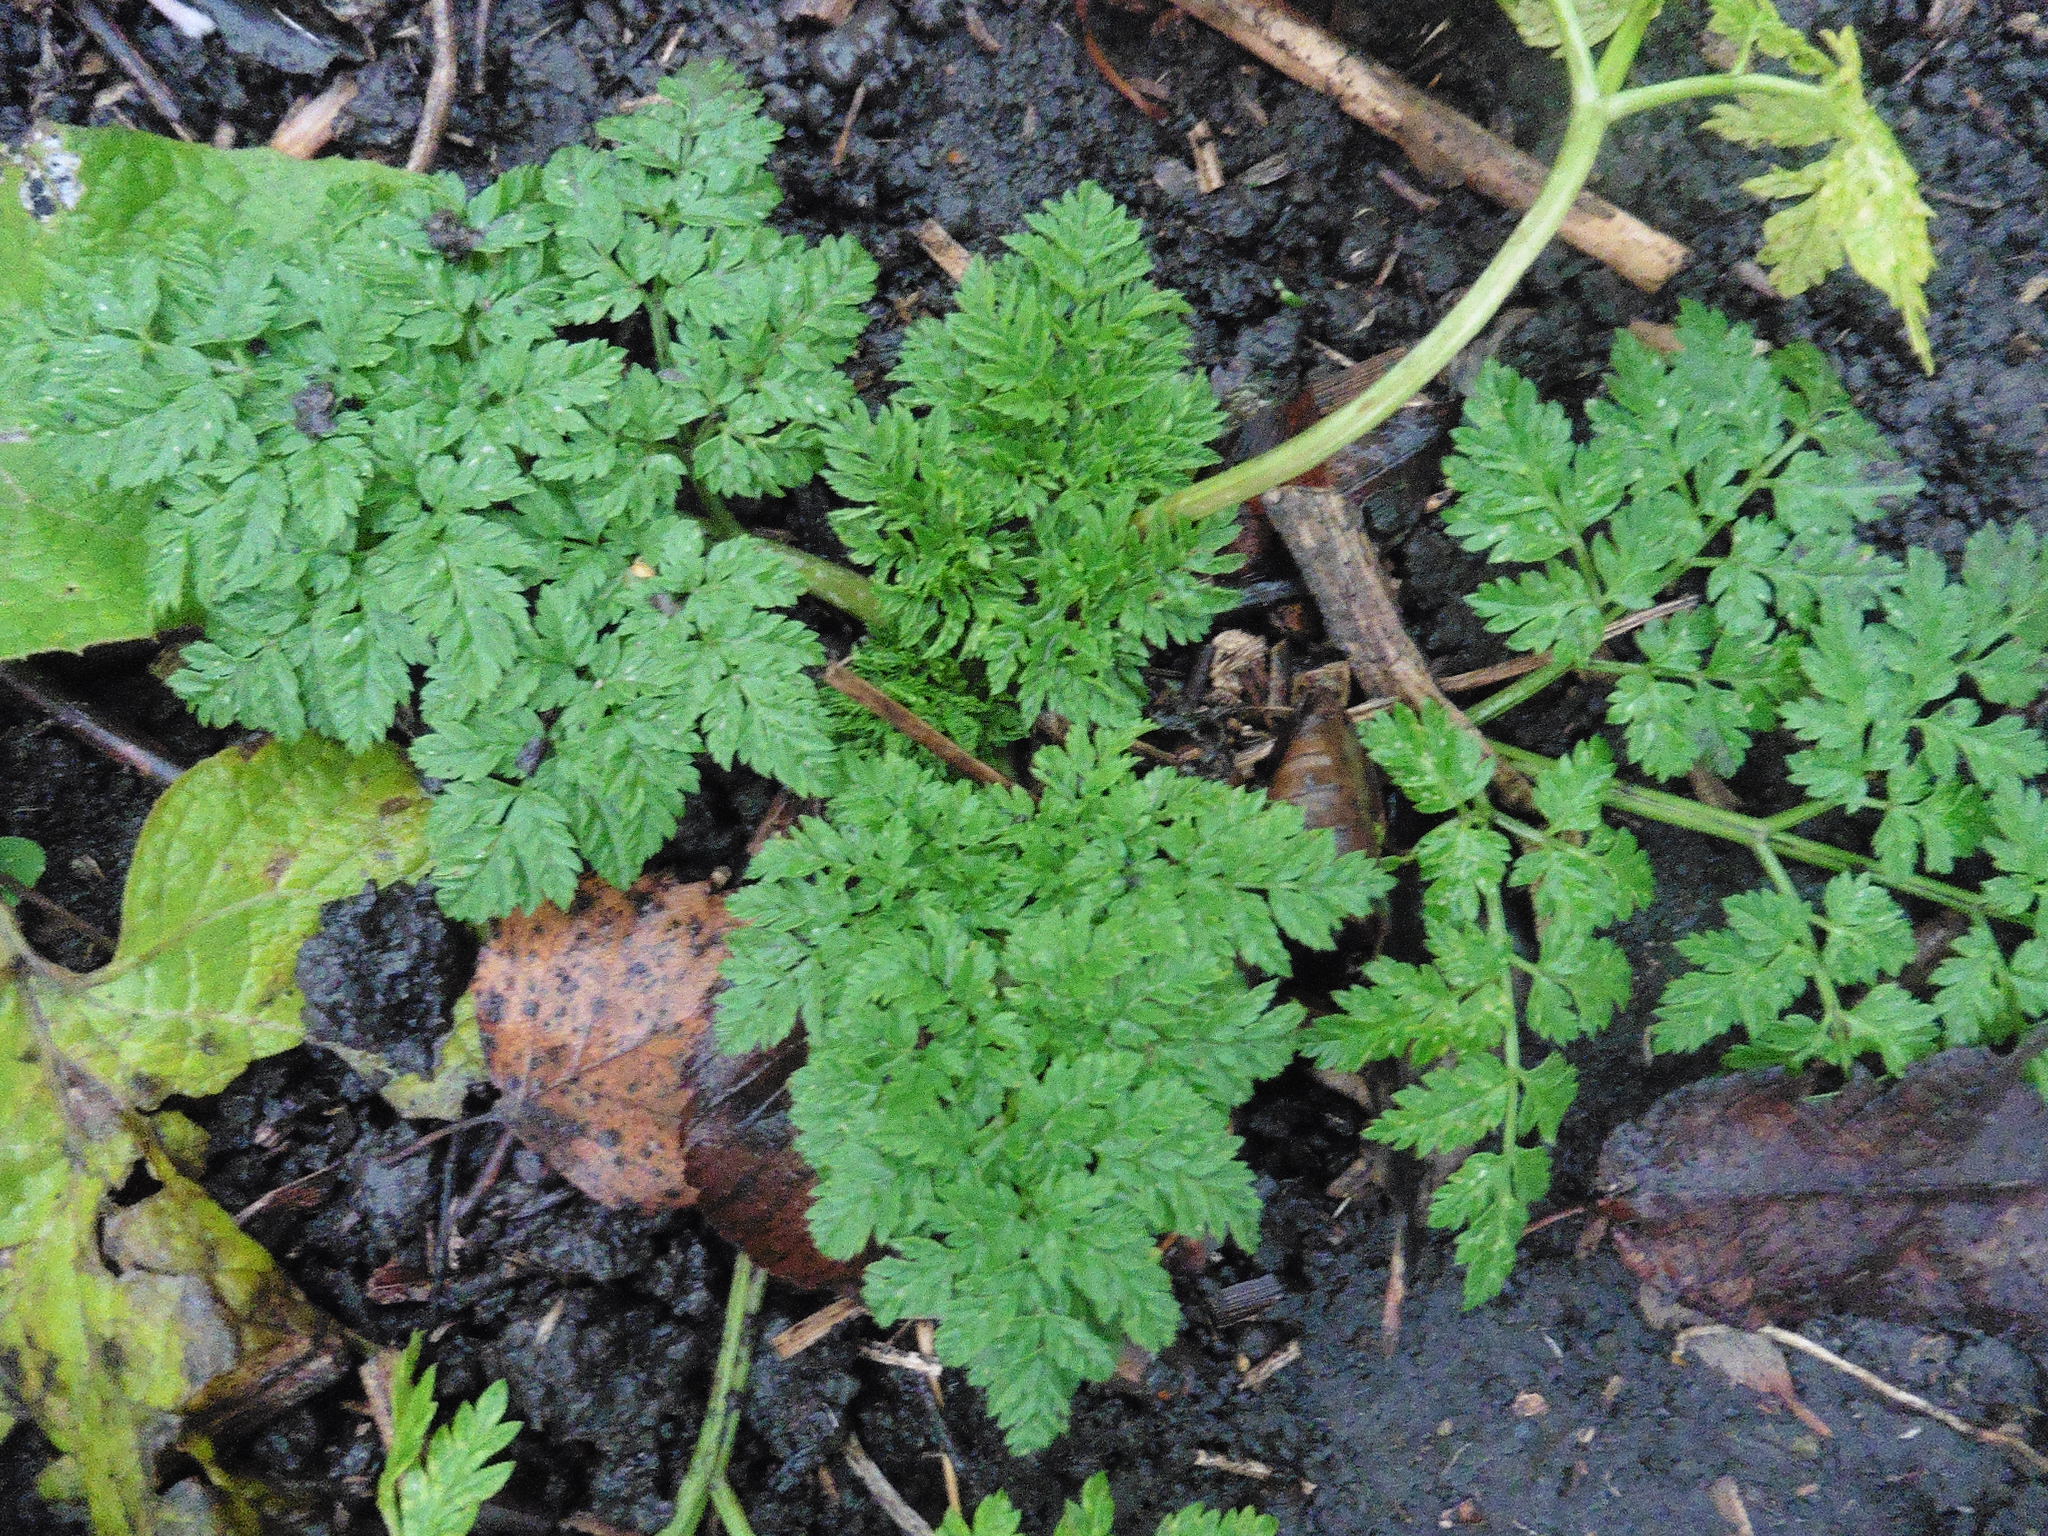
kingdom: Plantae
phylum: Tracheophyta
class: Magnoliopsida
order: Apiales
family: Apiaceae
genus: Conium
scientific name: Conium maculatum
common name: Hemlock
